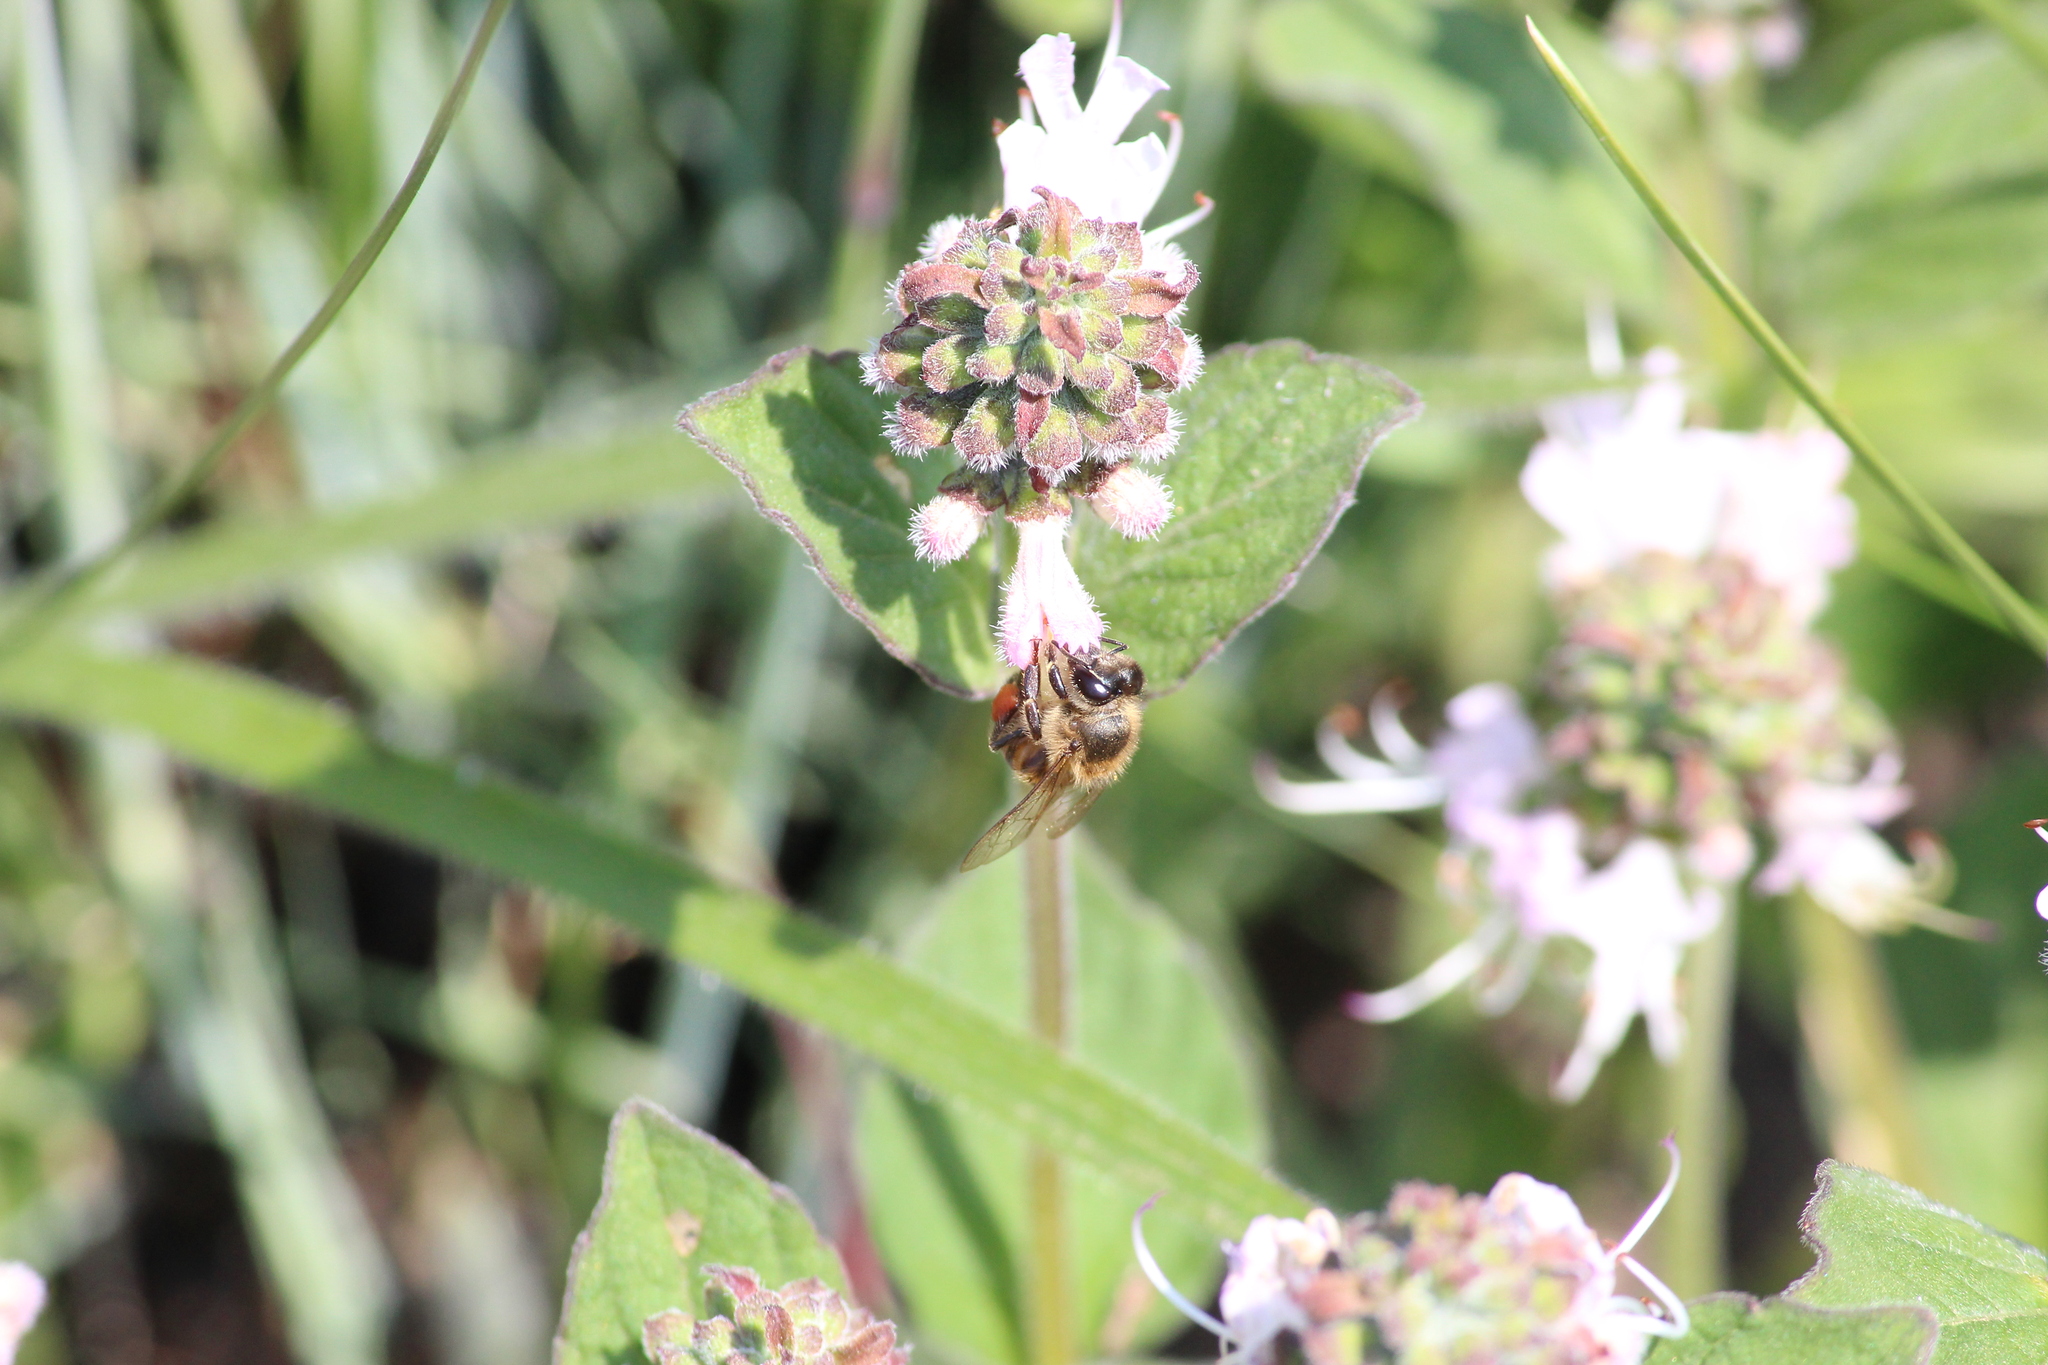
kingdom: Animalia
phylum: Arthropoda
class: Insecta
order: Hymenoptera
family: Apidae
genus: Apis
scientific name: Apis mellifera
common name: Honey bee
